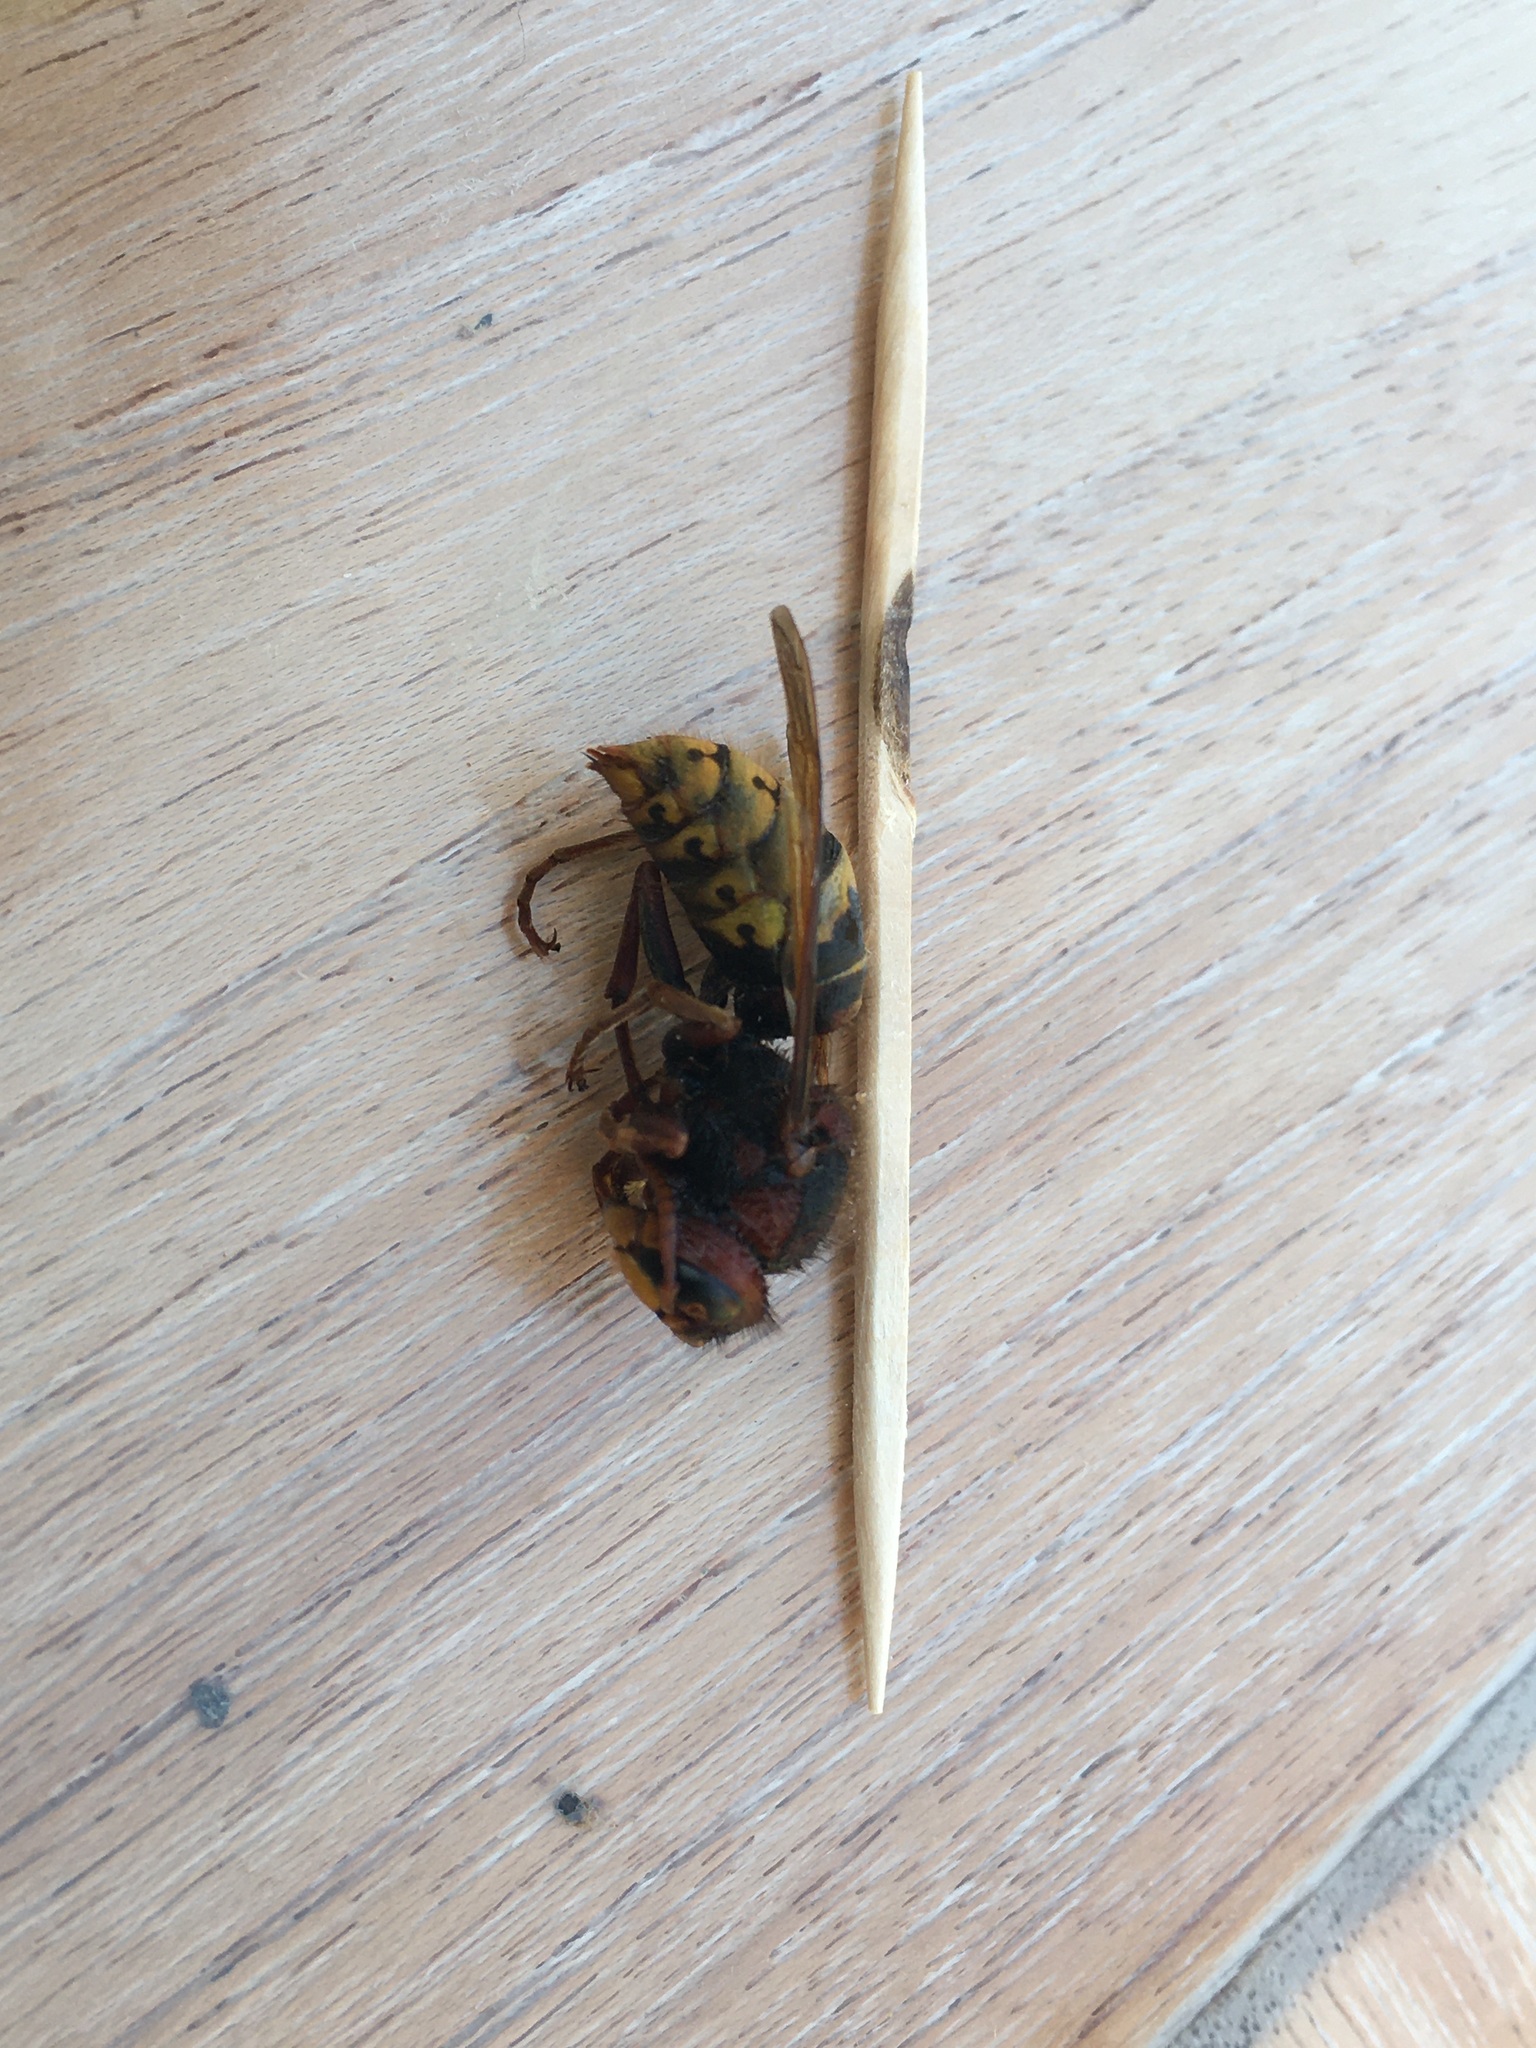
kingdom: Animalia
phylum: Arthropoda
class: Insecta
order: Hymenoptera
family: Vespidae
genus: Vespa
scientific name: Vespa crabro
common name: Hornet
